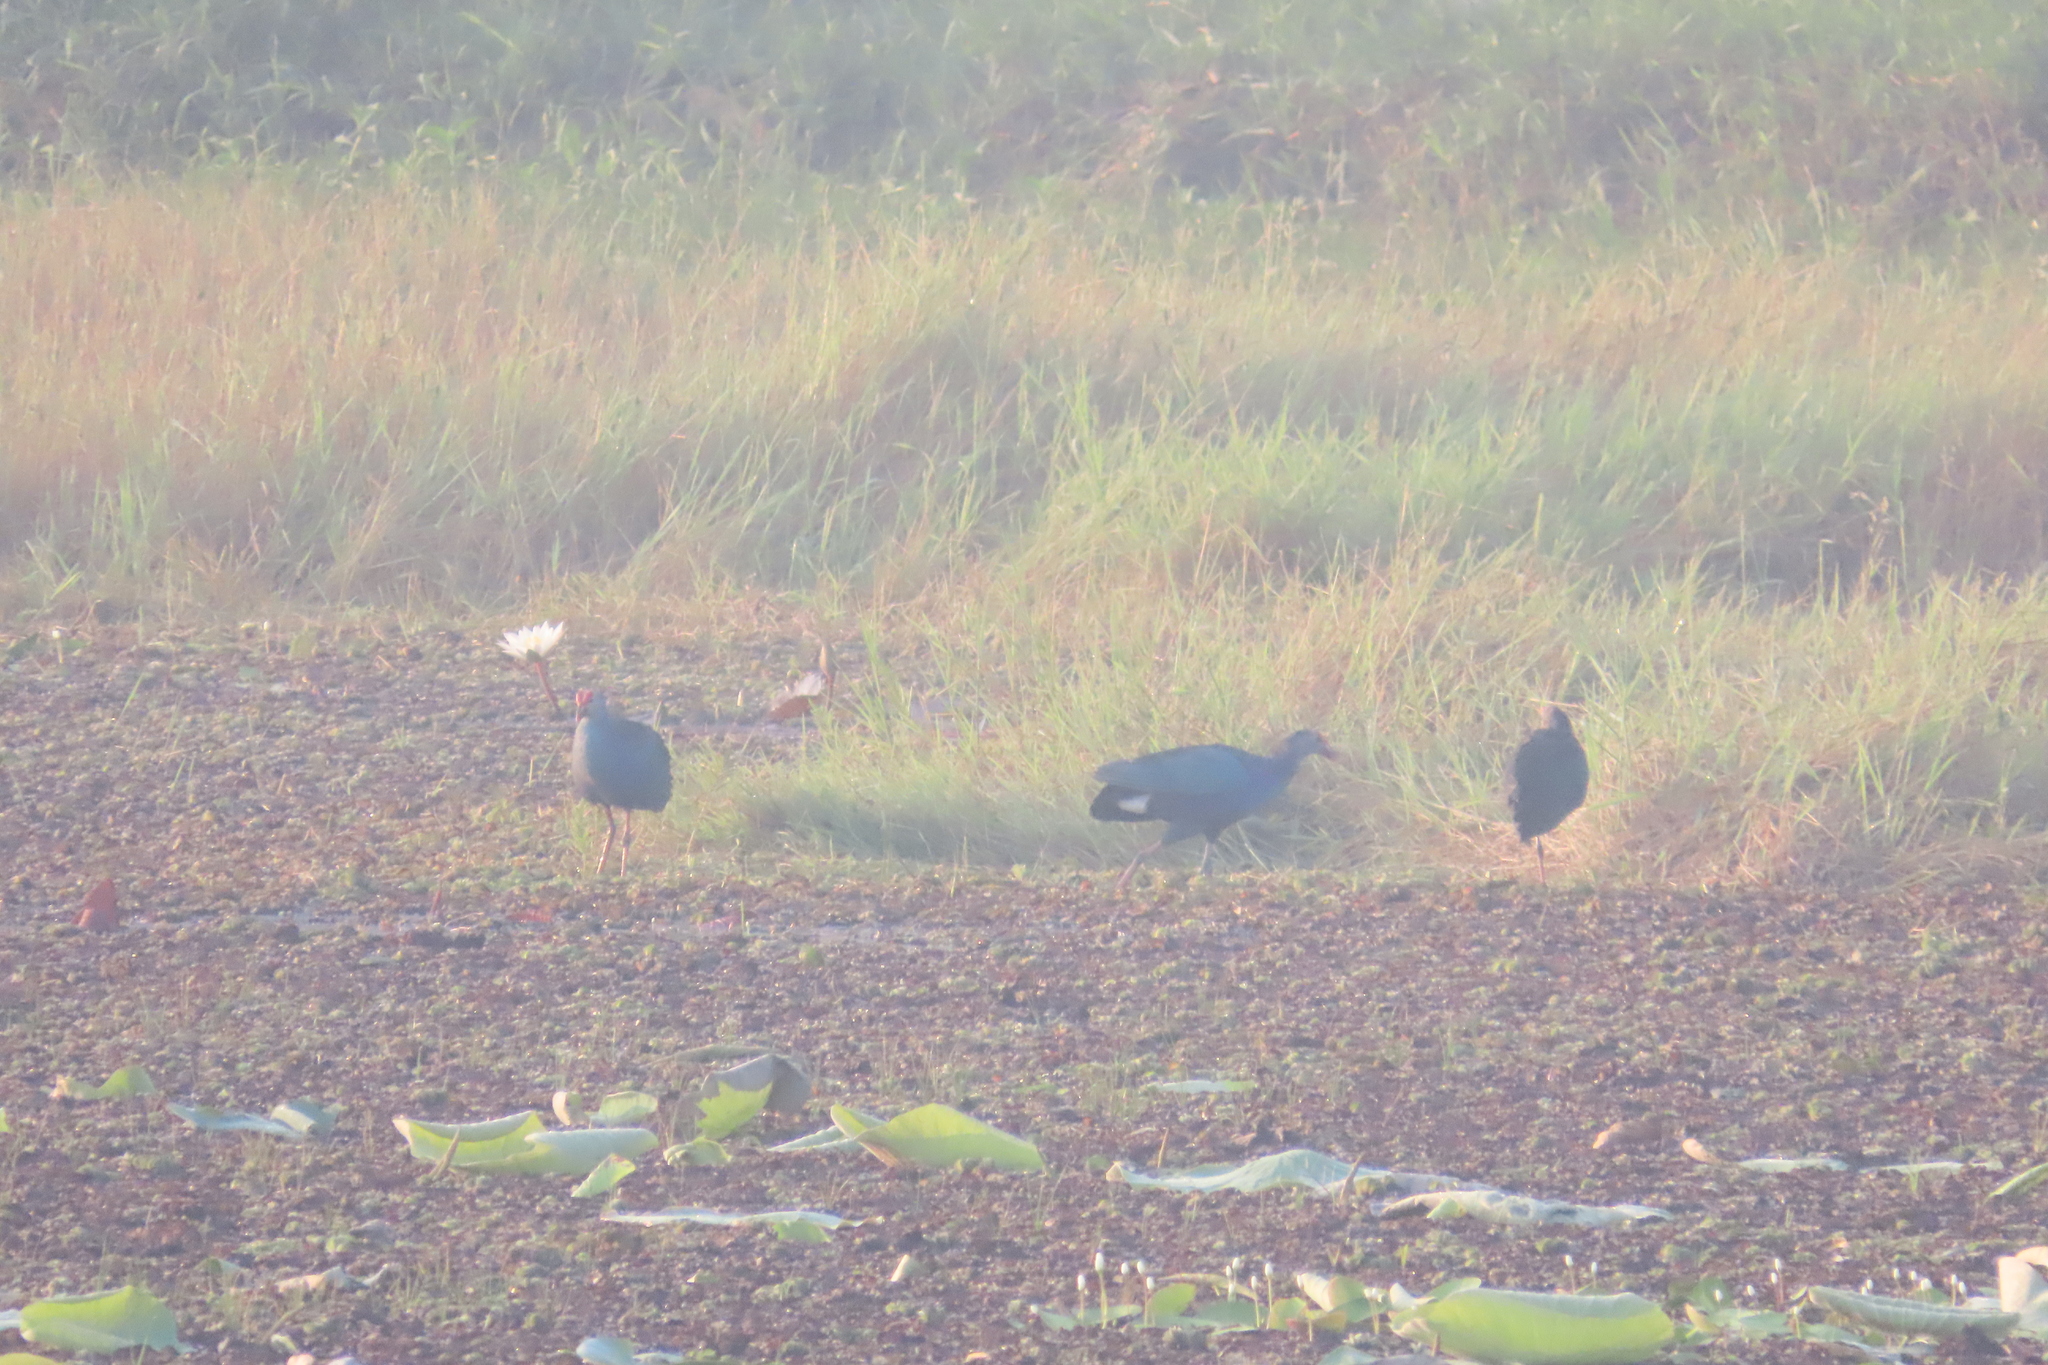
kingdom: Animalia
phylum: Chordata
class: Aves
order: Gruiformes
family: Rallidae
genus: Porphyrio
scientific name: Porphyrio porphyrio
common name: Purple swamphen
